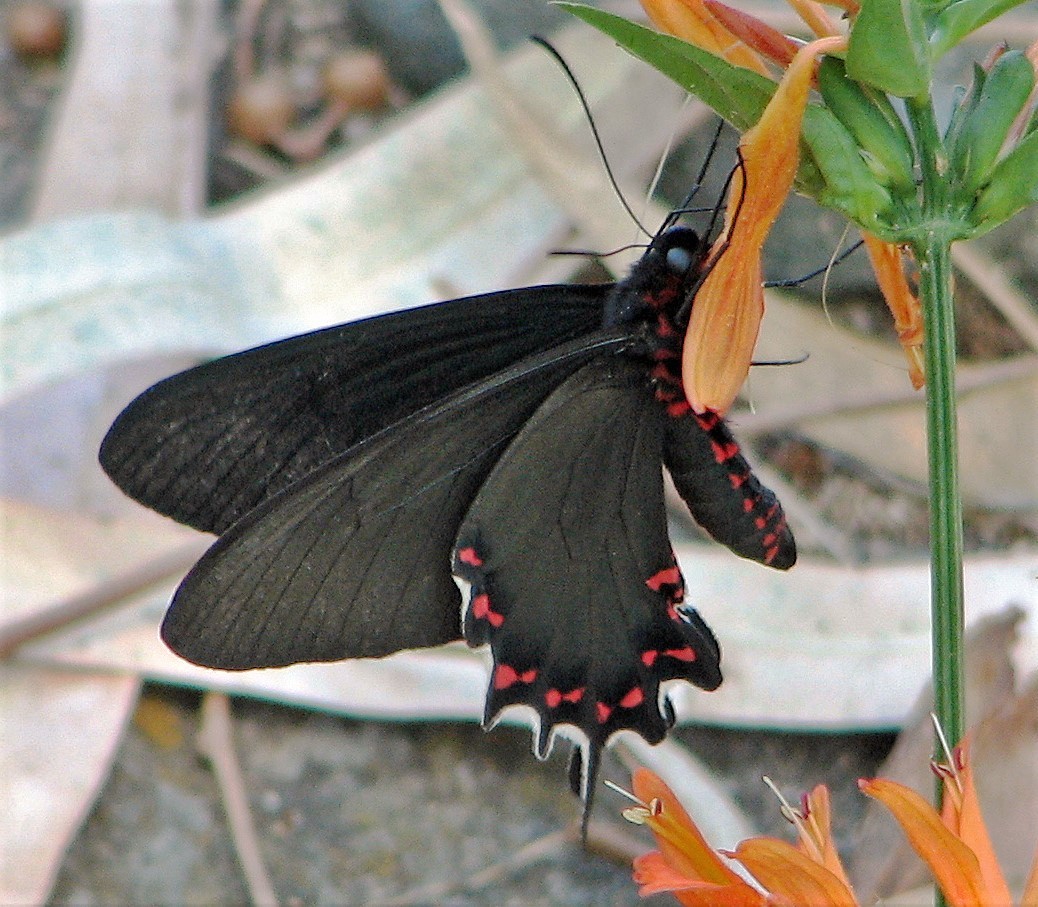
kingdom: Animalia
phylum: Arthropoda
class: Insecta
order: Lepidoptera
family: Papilionidae
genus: Parides
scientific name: Parides bunichus
